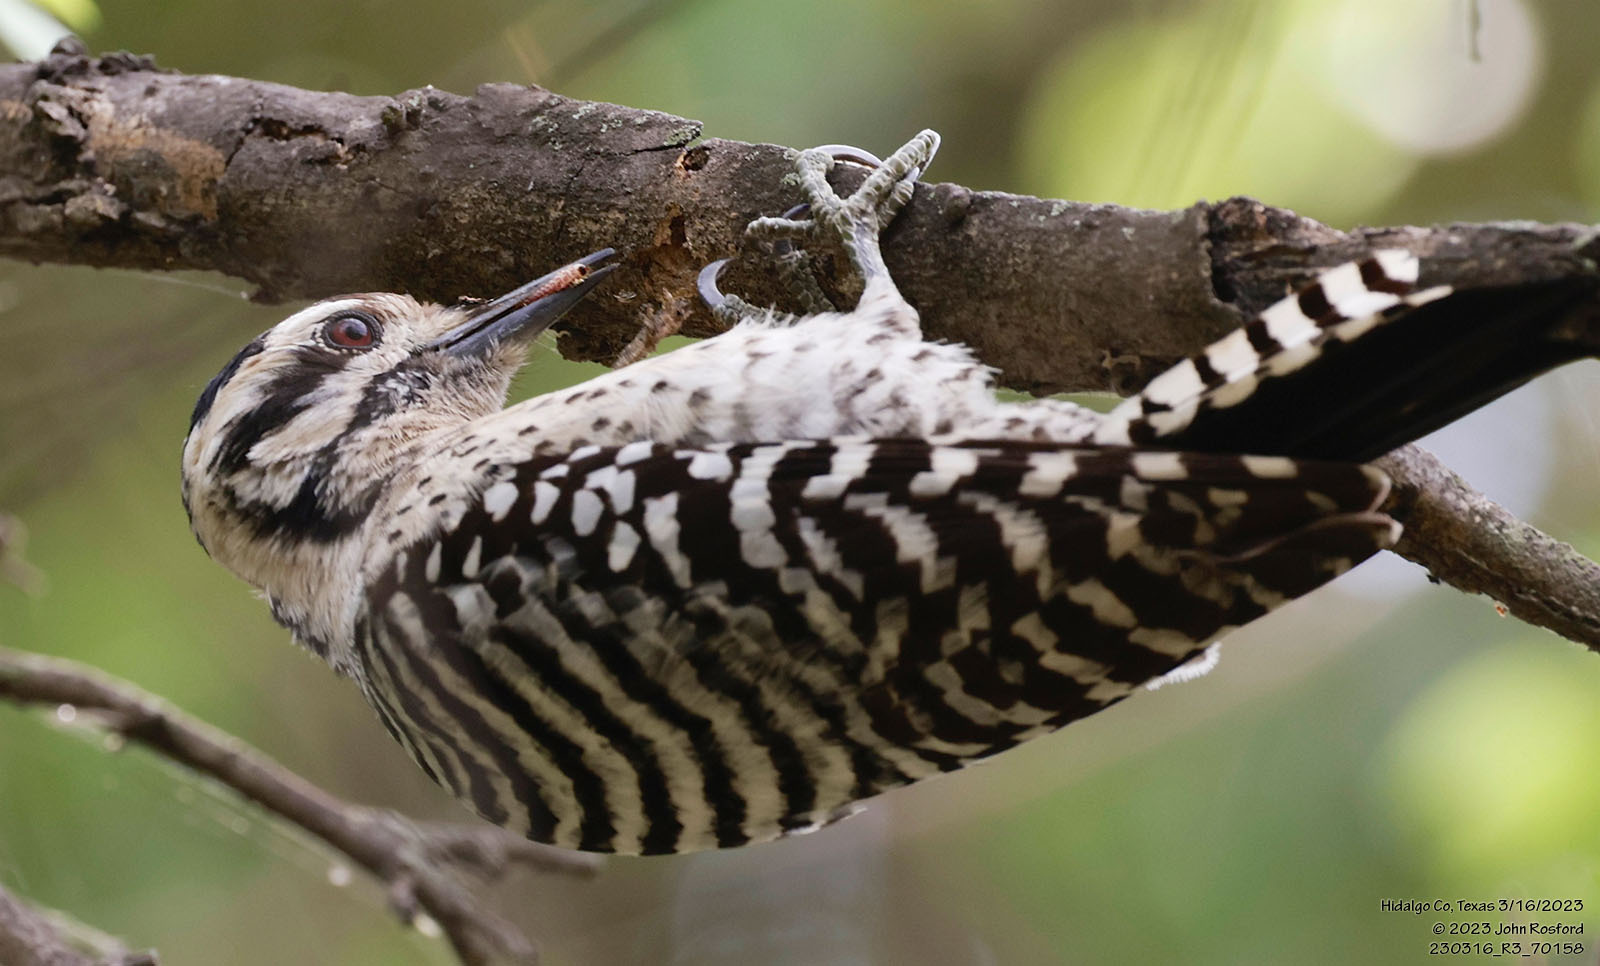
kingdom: Animalia
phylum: Chordata
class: Aves
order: Piciformes
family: Picidae
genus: Dryobates
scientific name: Dryobates scalaris
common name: Ladder-backed woodpecker
